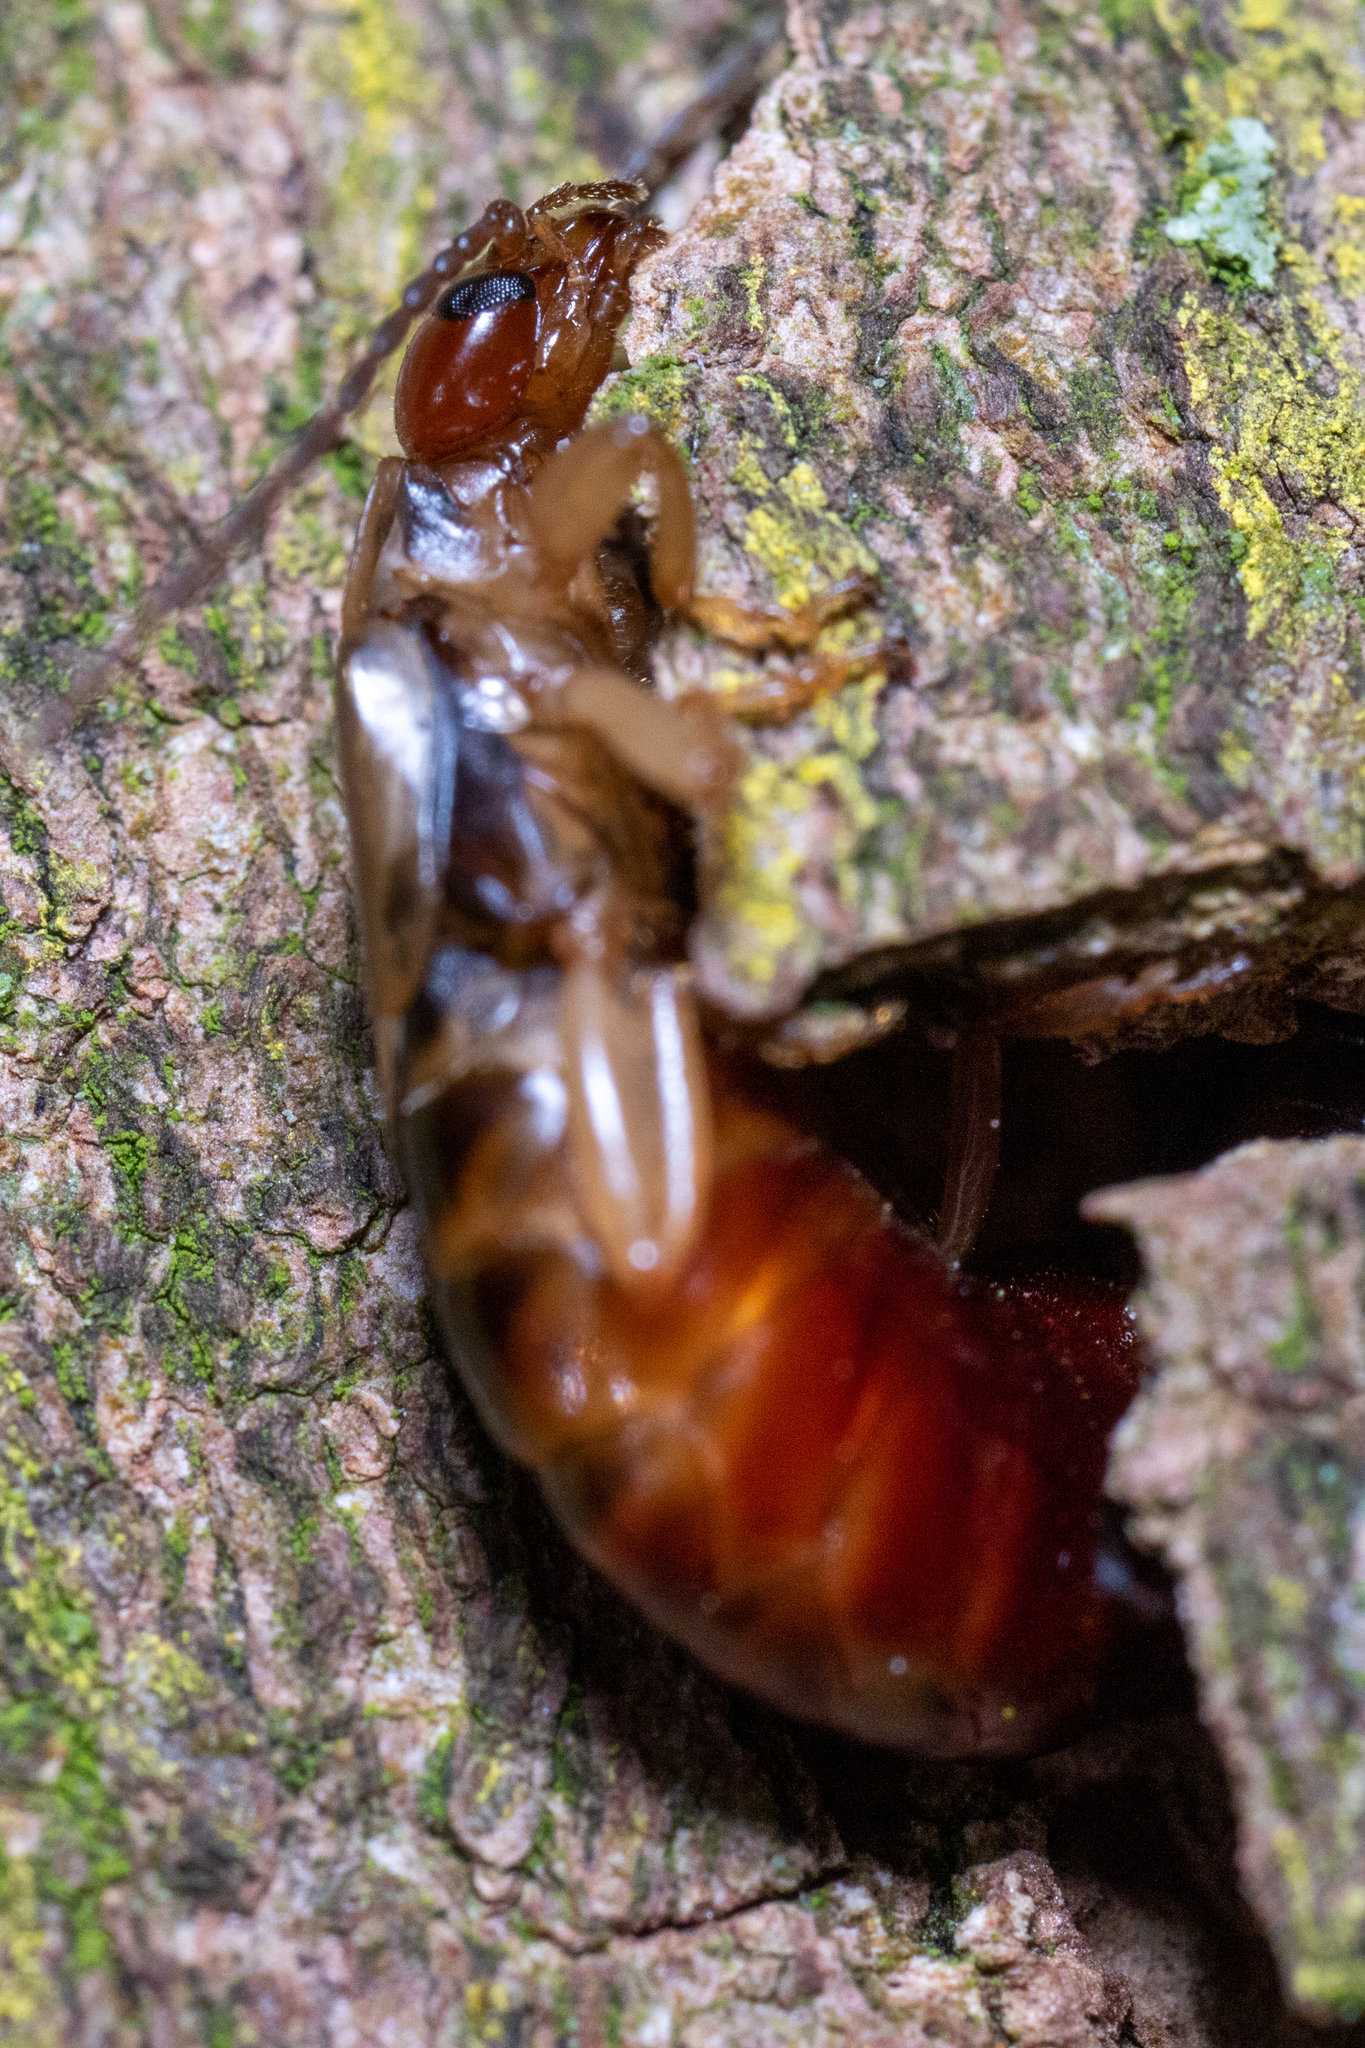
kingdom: Animalia
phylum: Arthropoda
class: Insecta
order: Dermaptera
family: Forficulidae
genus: Forficula
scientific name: Forficula
